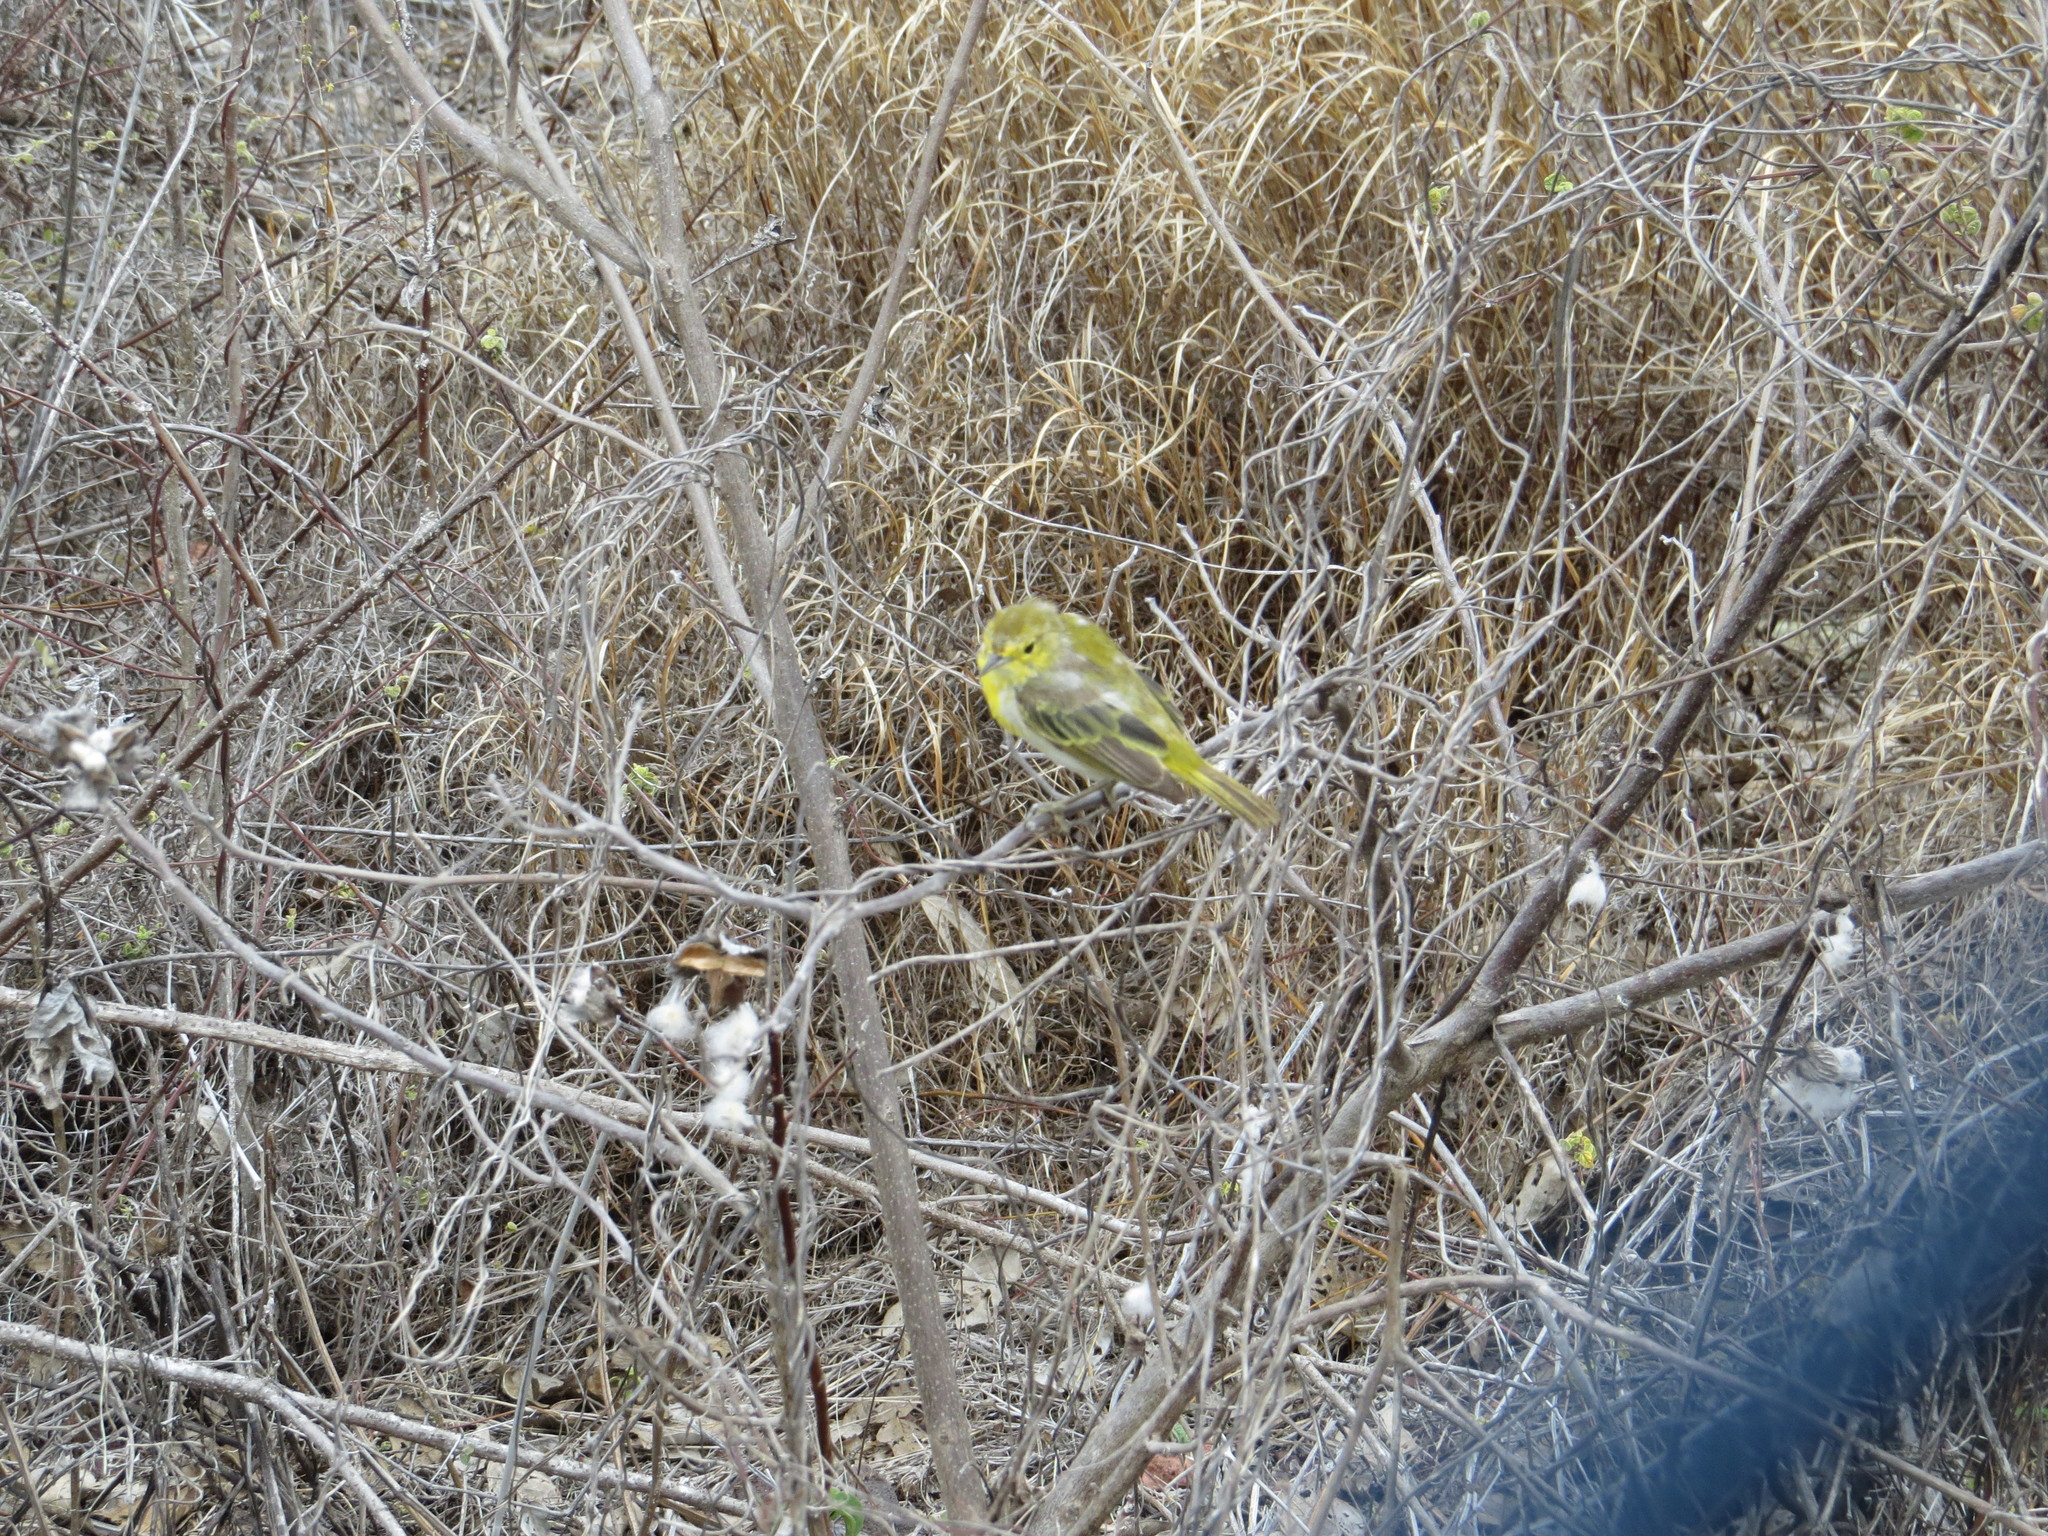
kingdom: Animalia
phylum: Chordata
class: Aves
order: Passeriformes
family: Parulidae
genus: Setophaga
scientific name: Setophaga petechia
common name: Yellow warbler
